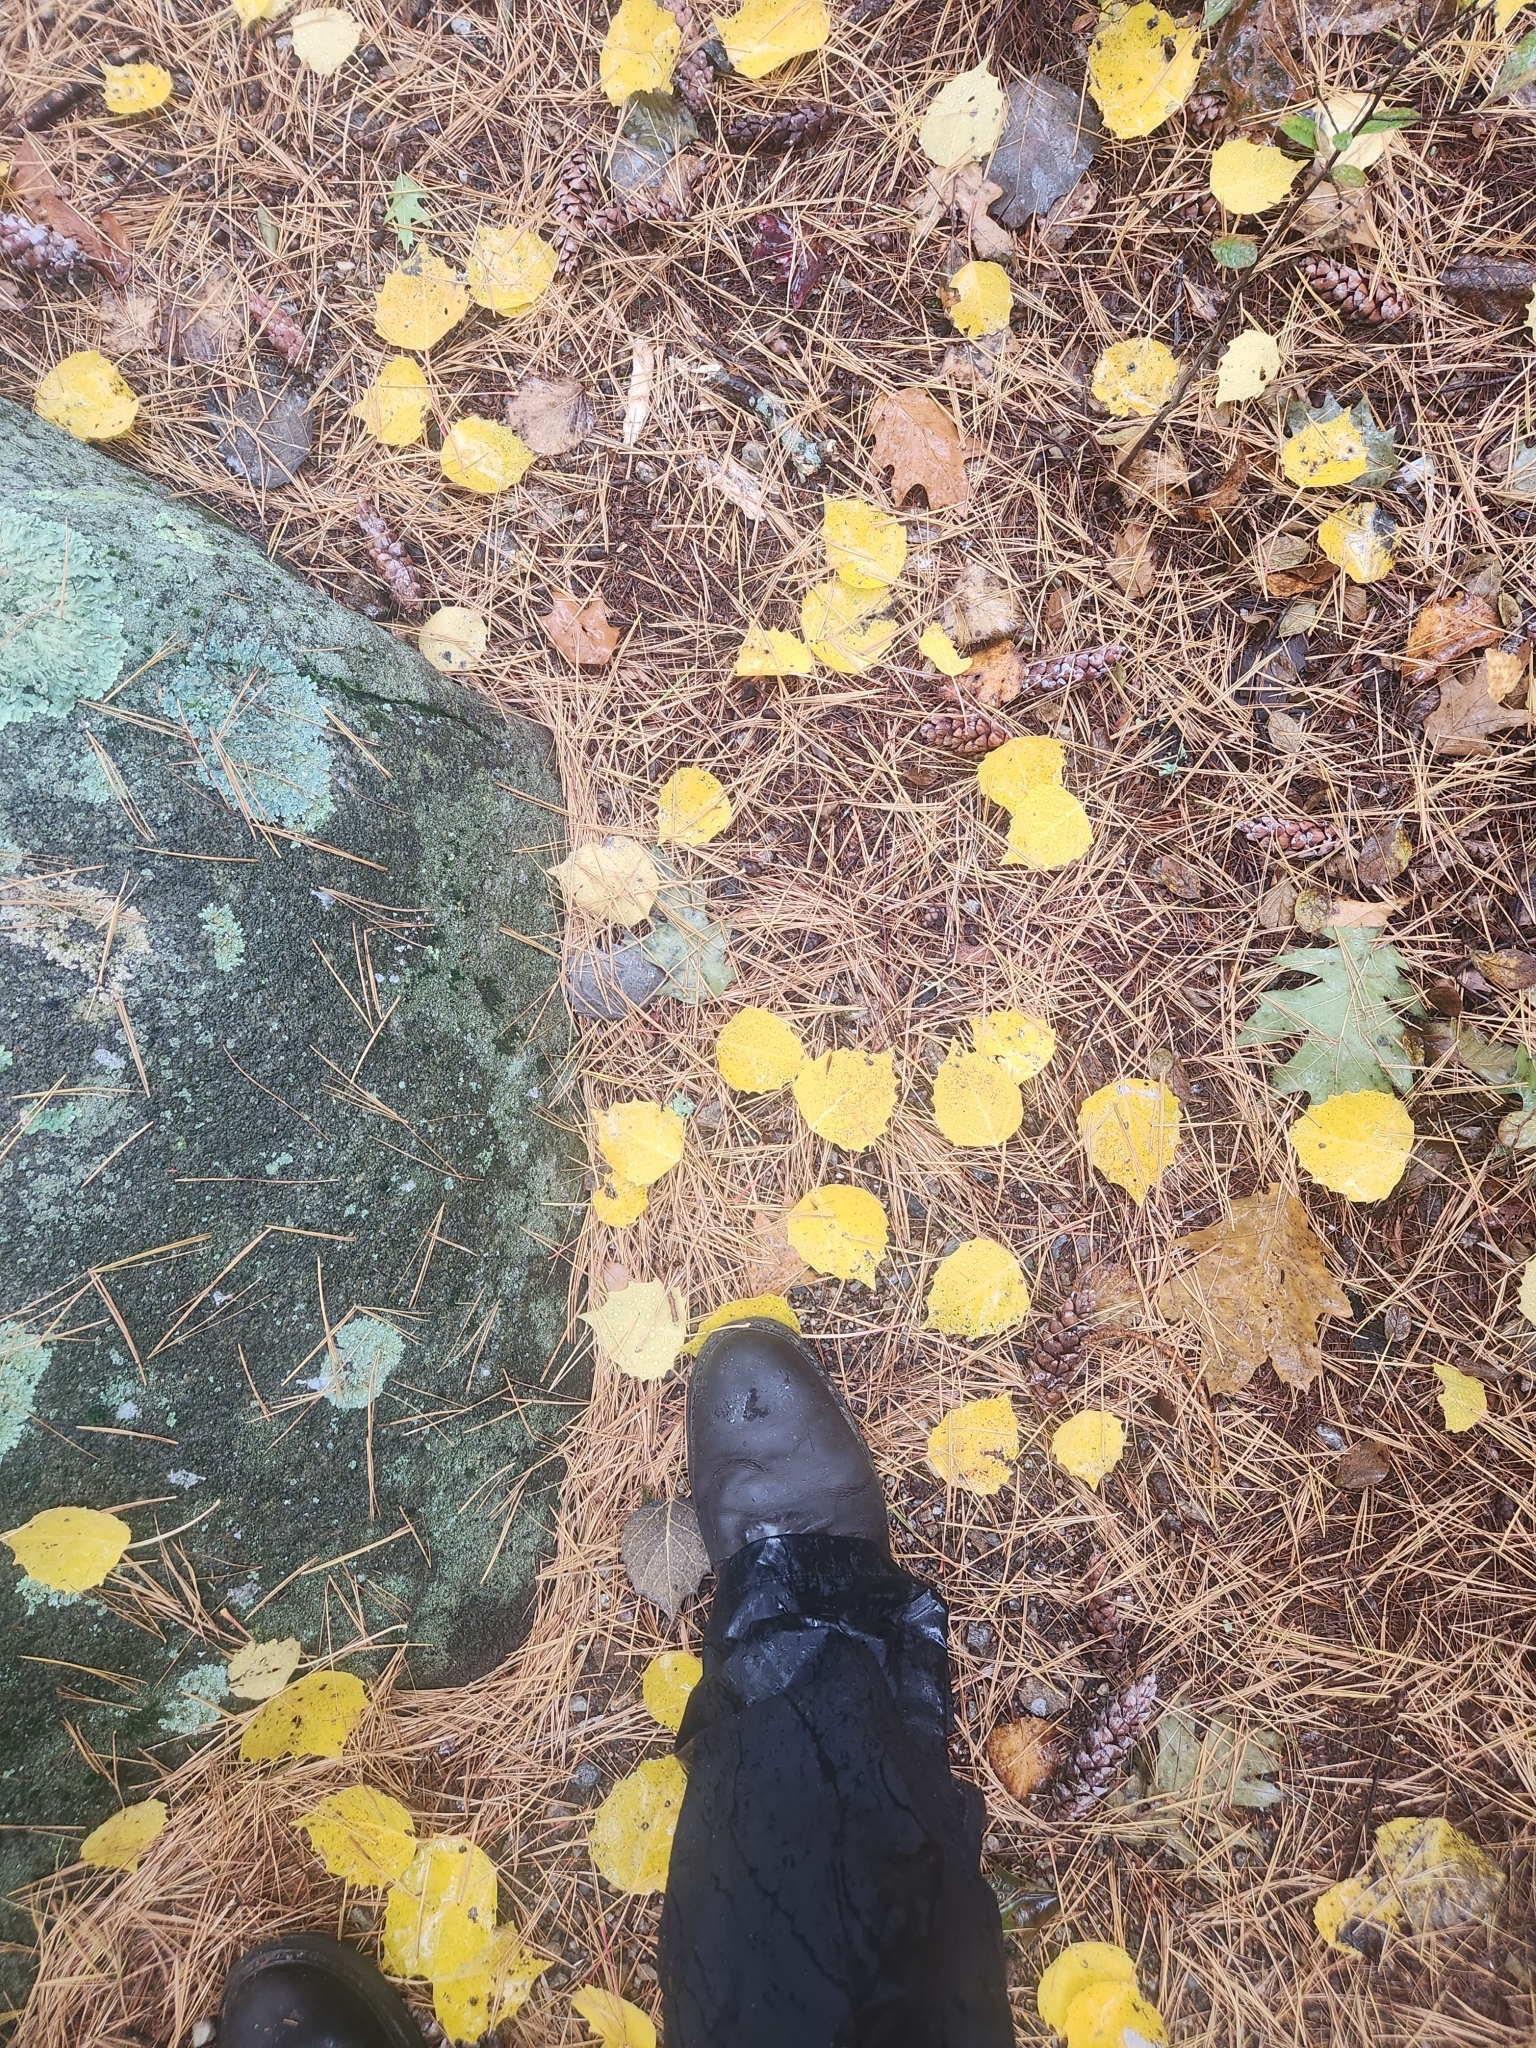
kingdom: Plantae
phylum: Tracheophyta
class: Magnoliopsida
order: Malpighiales
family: Salicaceae
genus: Populus
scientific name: Populus grandidentata
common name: Bigtooth aspen
